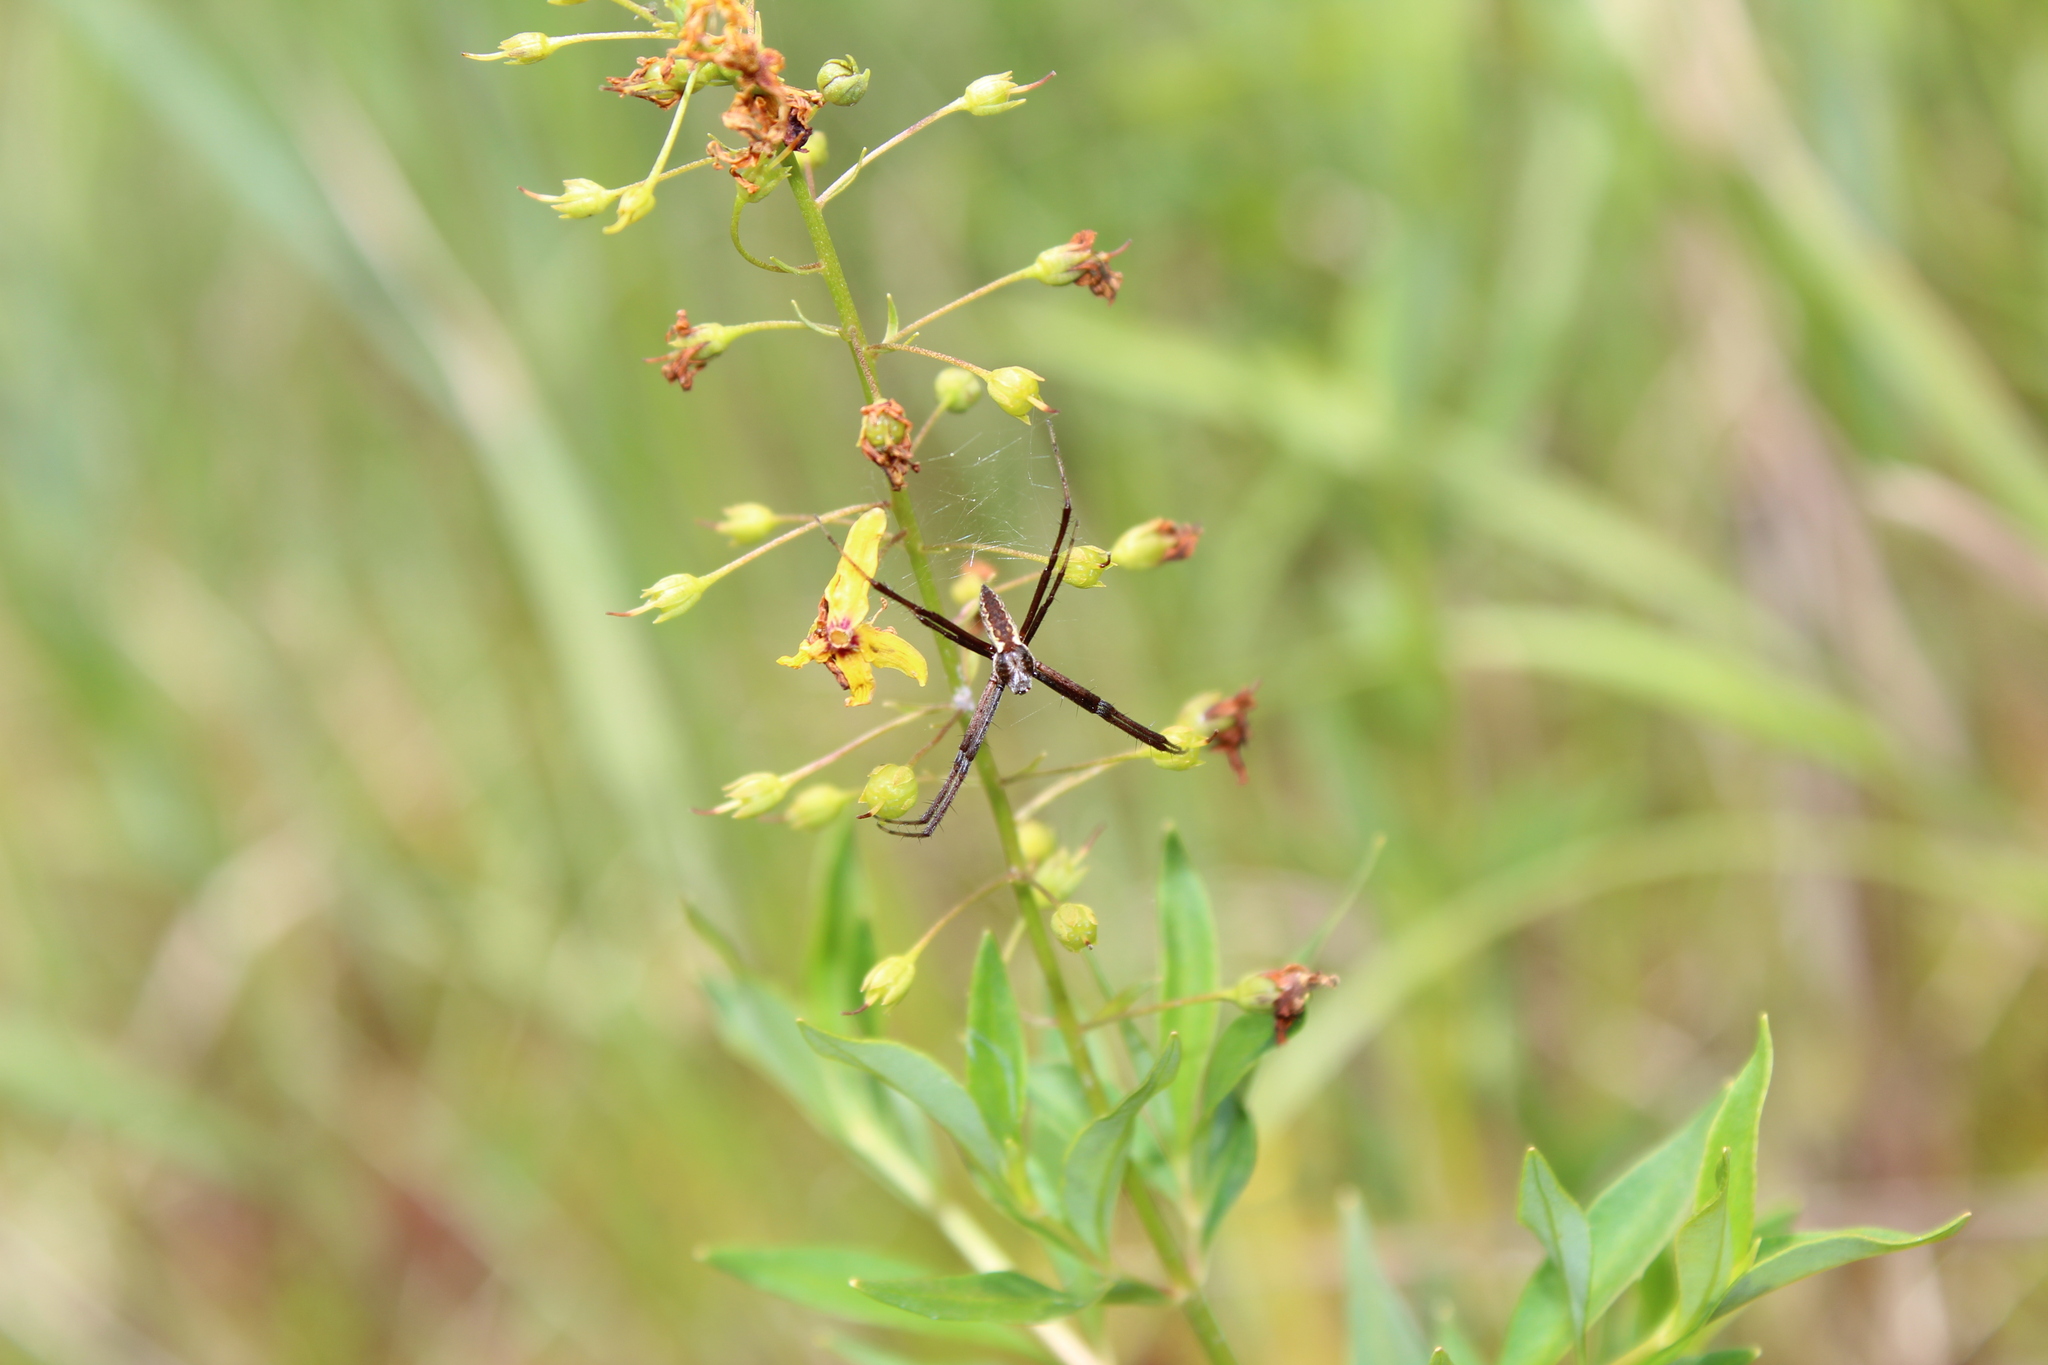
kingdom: Animalia
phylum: Arthropoda
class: Arachnida
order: Araneae
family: Araneidae
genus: Argiope
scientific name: Argiope aurantia
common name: Orb weavers
